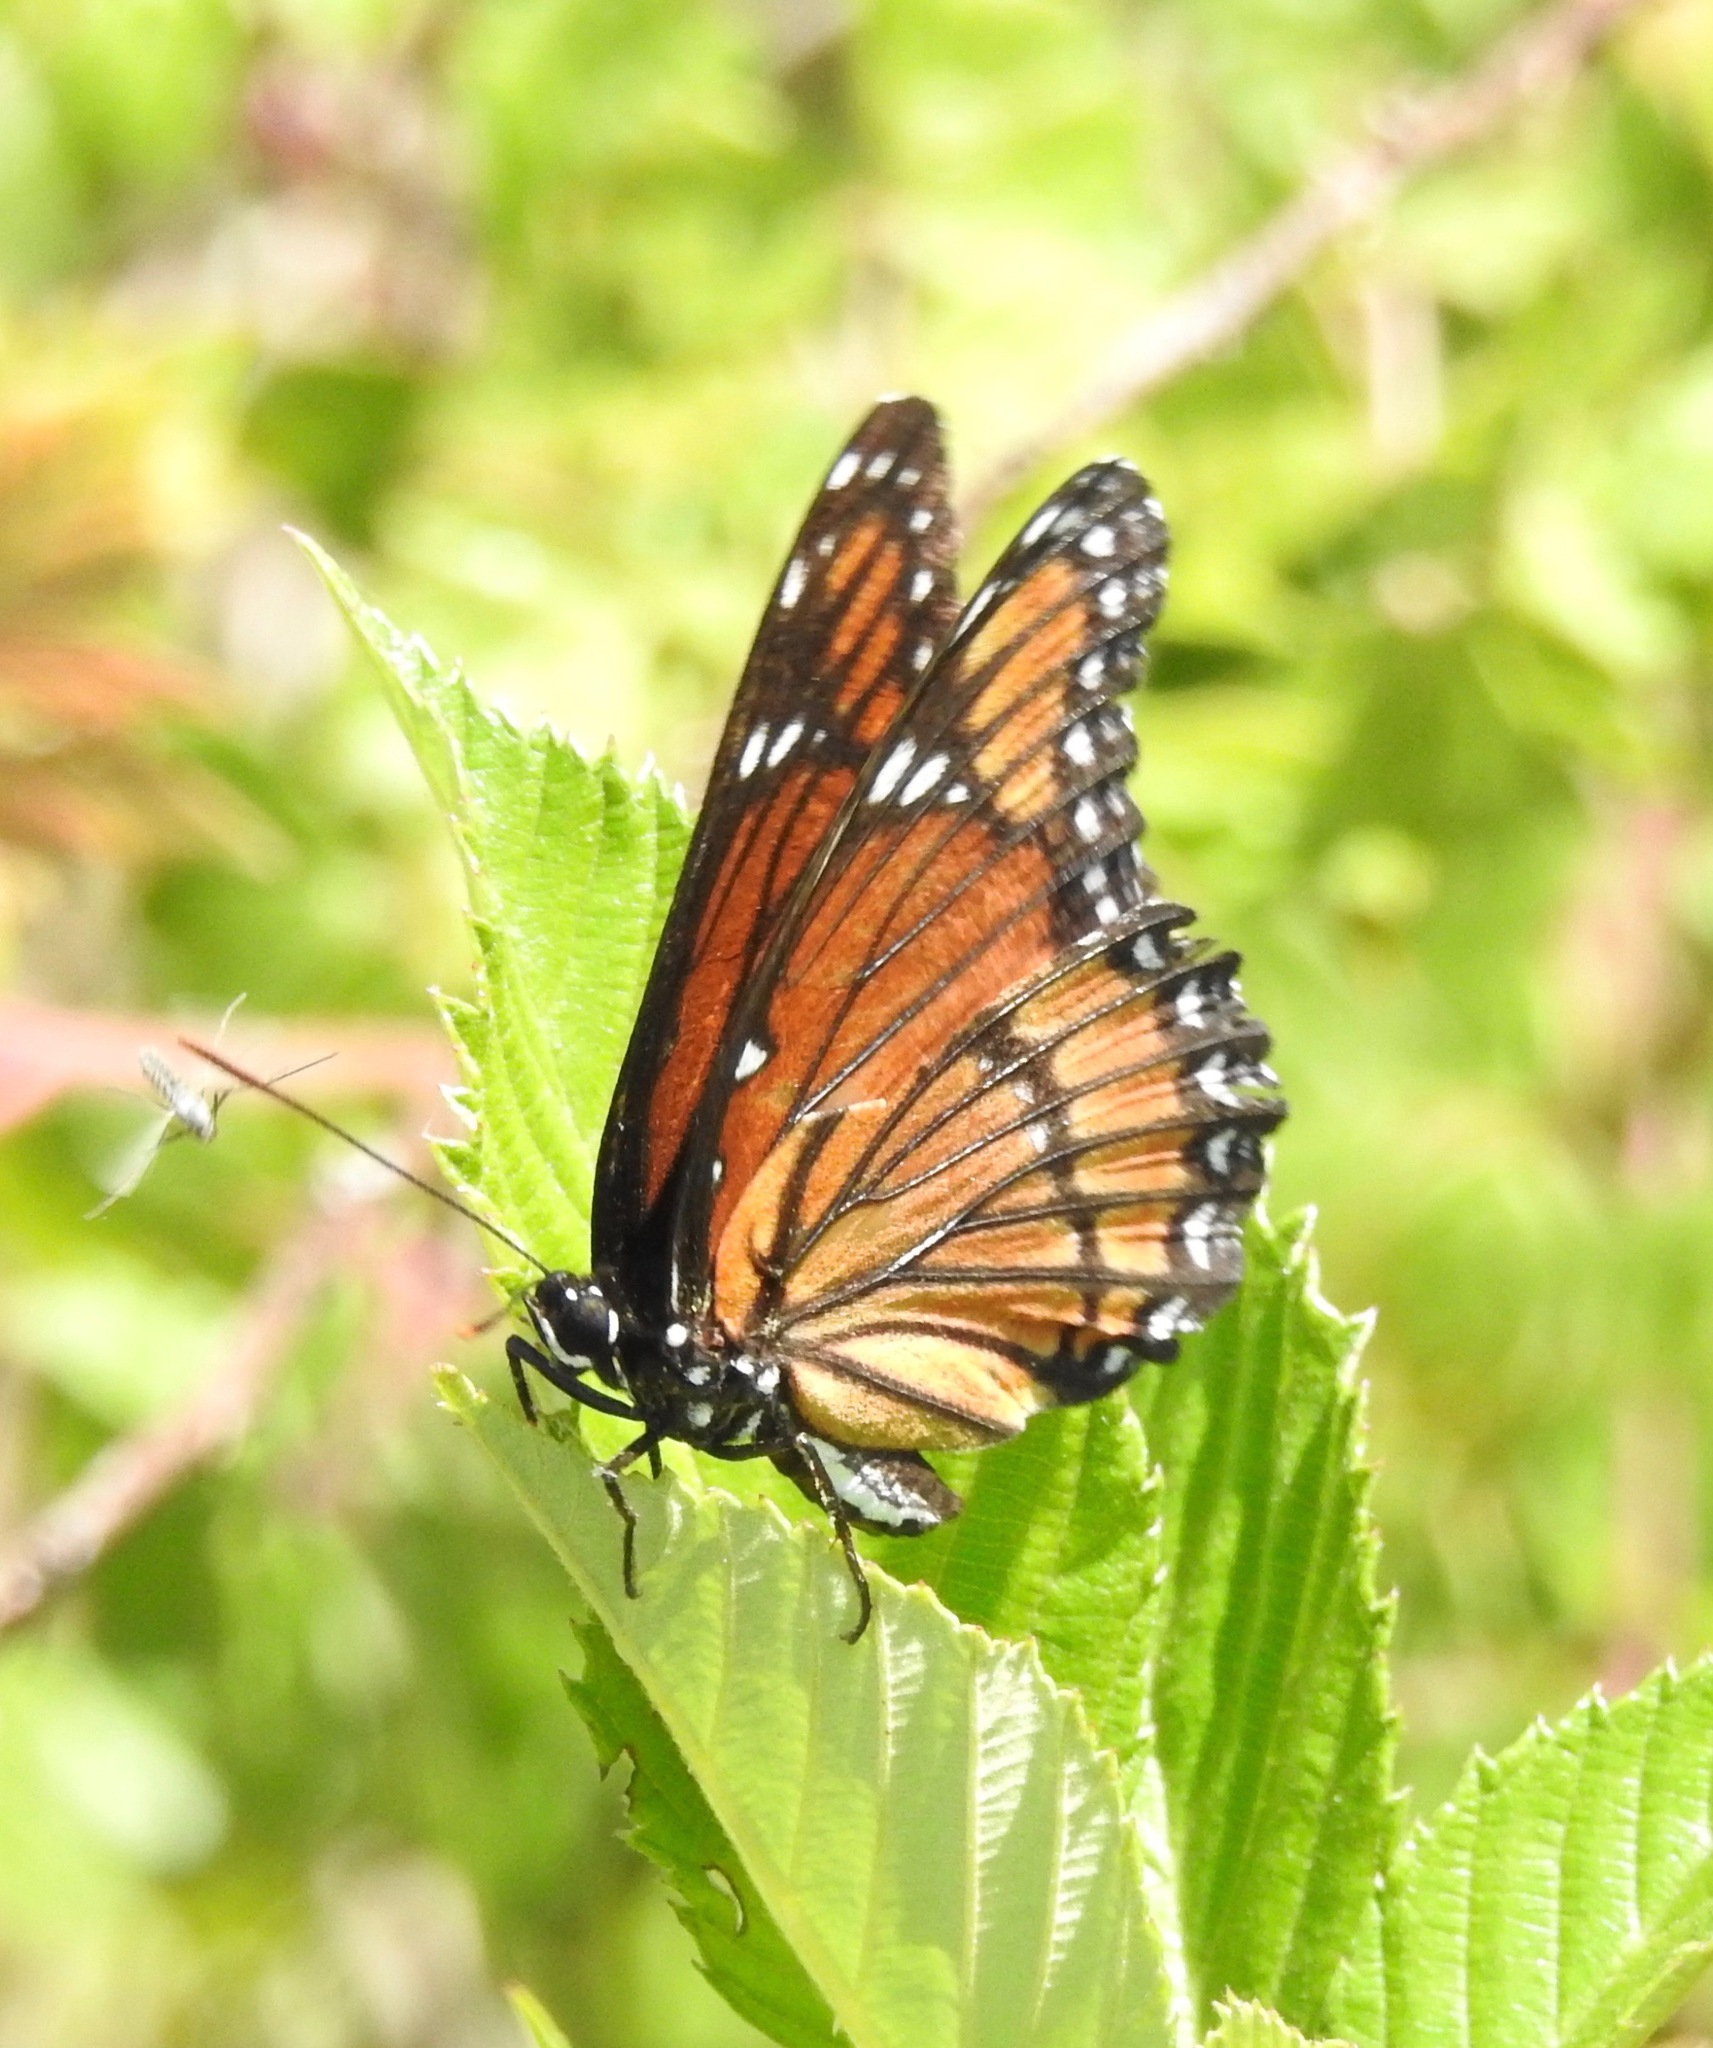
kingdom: Animalia
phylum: Arthropoda
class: Insecta
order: Lepidoptera
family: Nymphalidae
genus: Limenitis
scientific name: Limenitis archippus
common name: Viceroy
